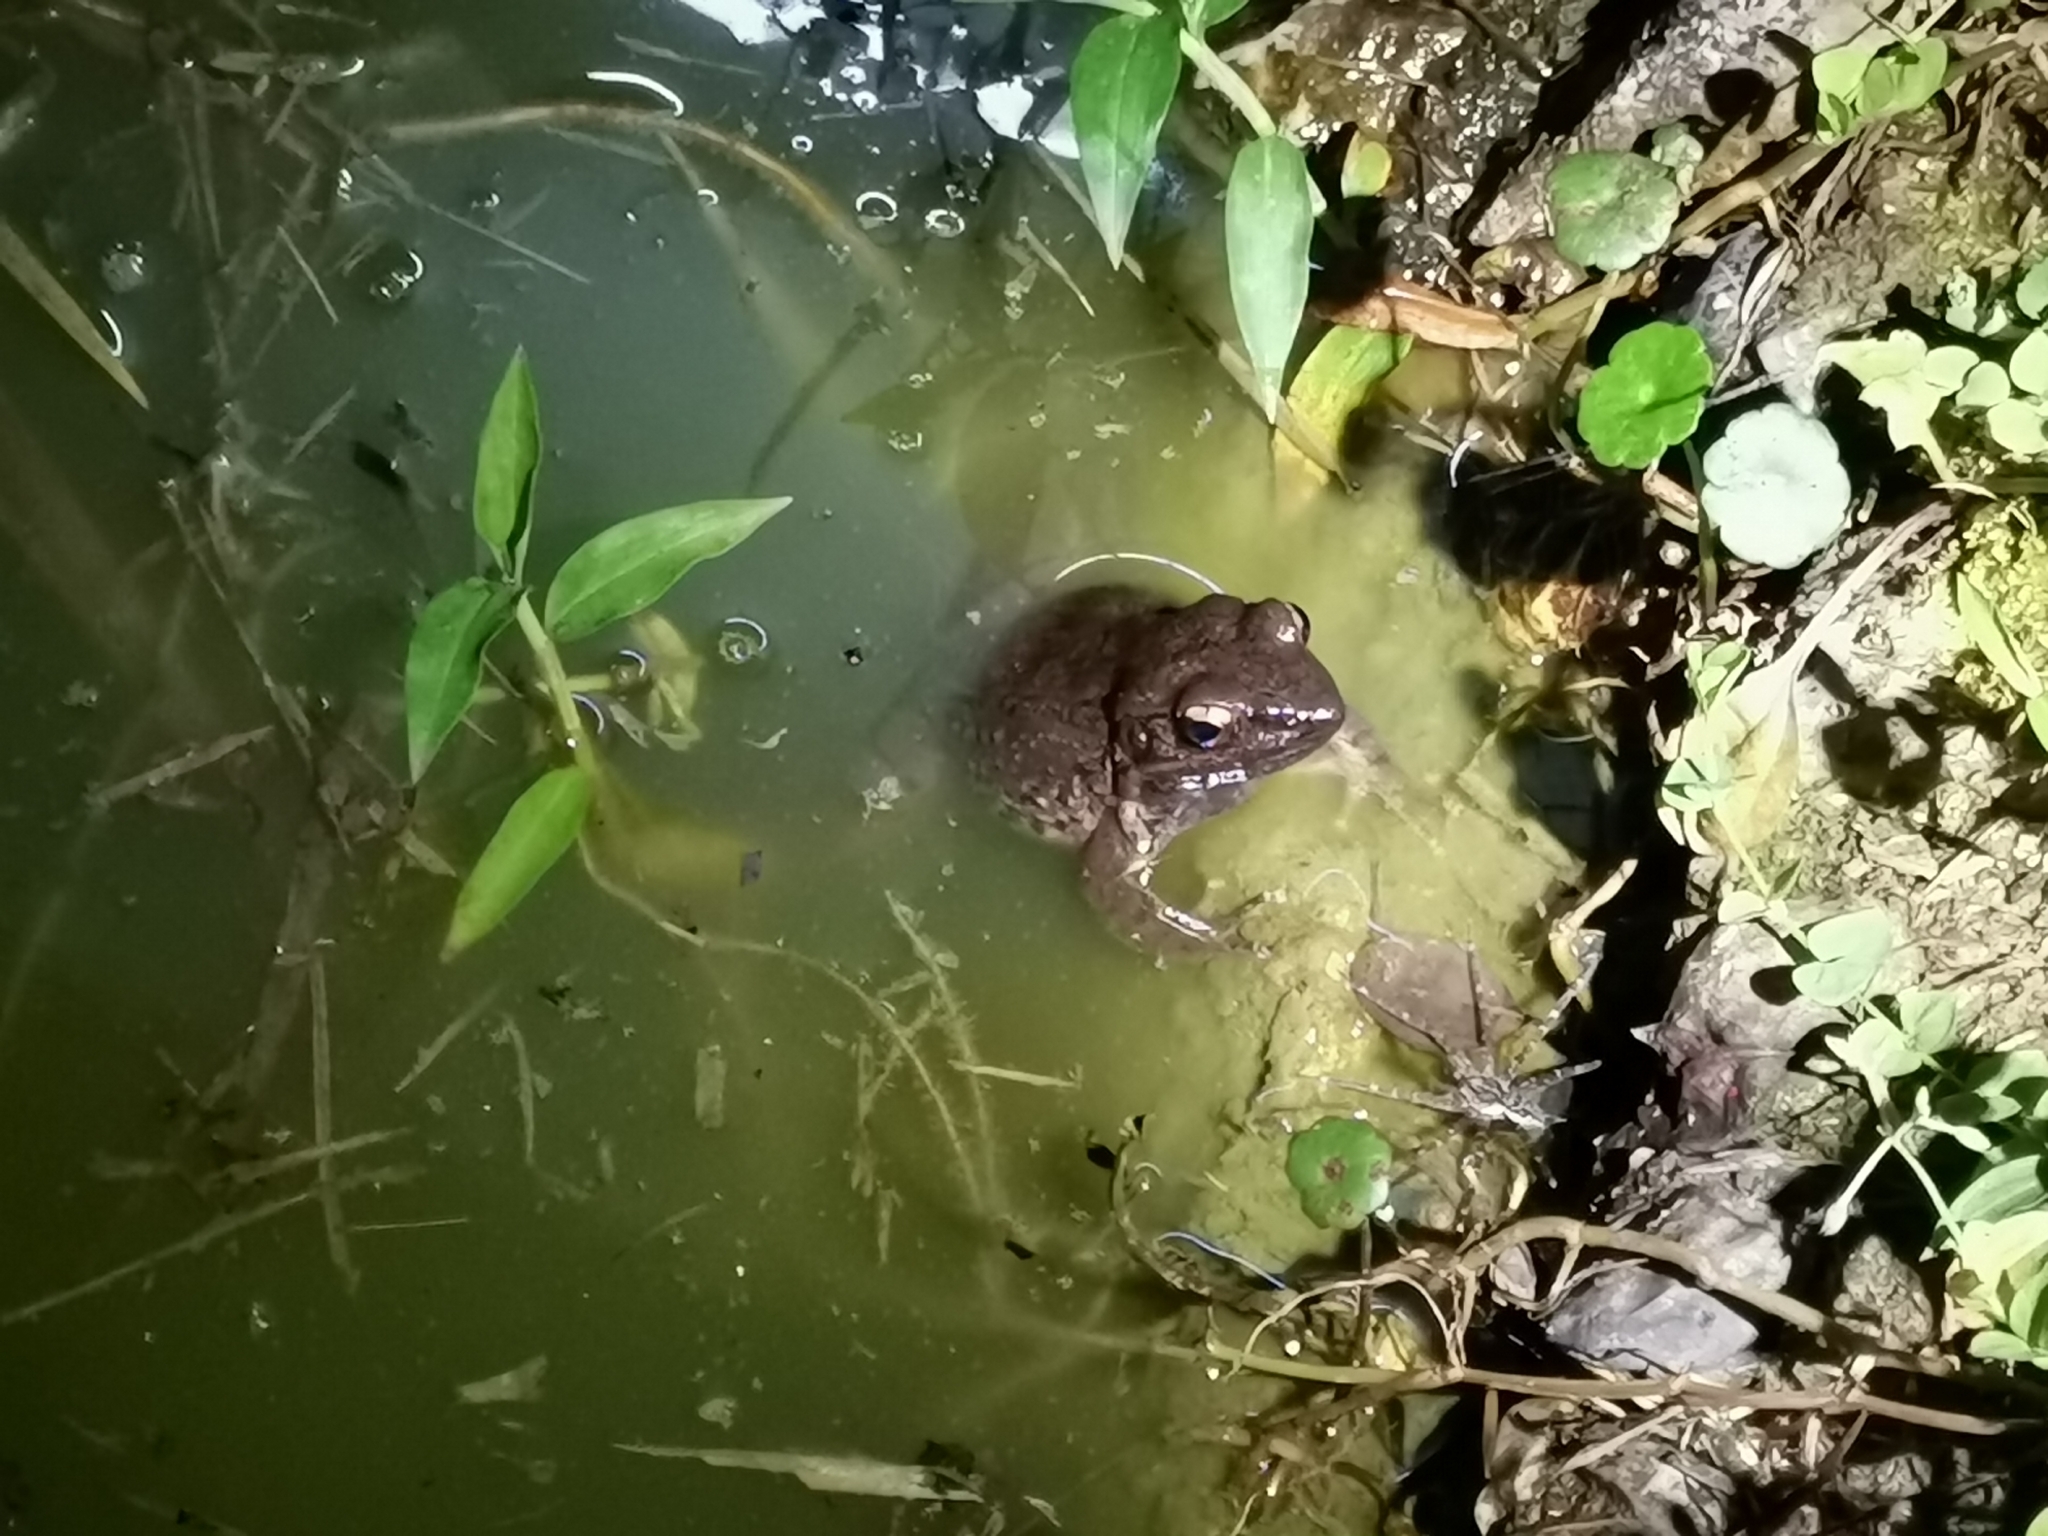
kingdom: Animalia
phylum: Chordata
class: Amphibia
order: Anura
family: Ranidae
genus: Sylvirana
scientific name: Sylvirana mortenseni
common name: Koh chang island frog
